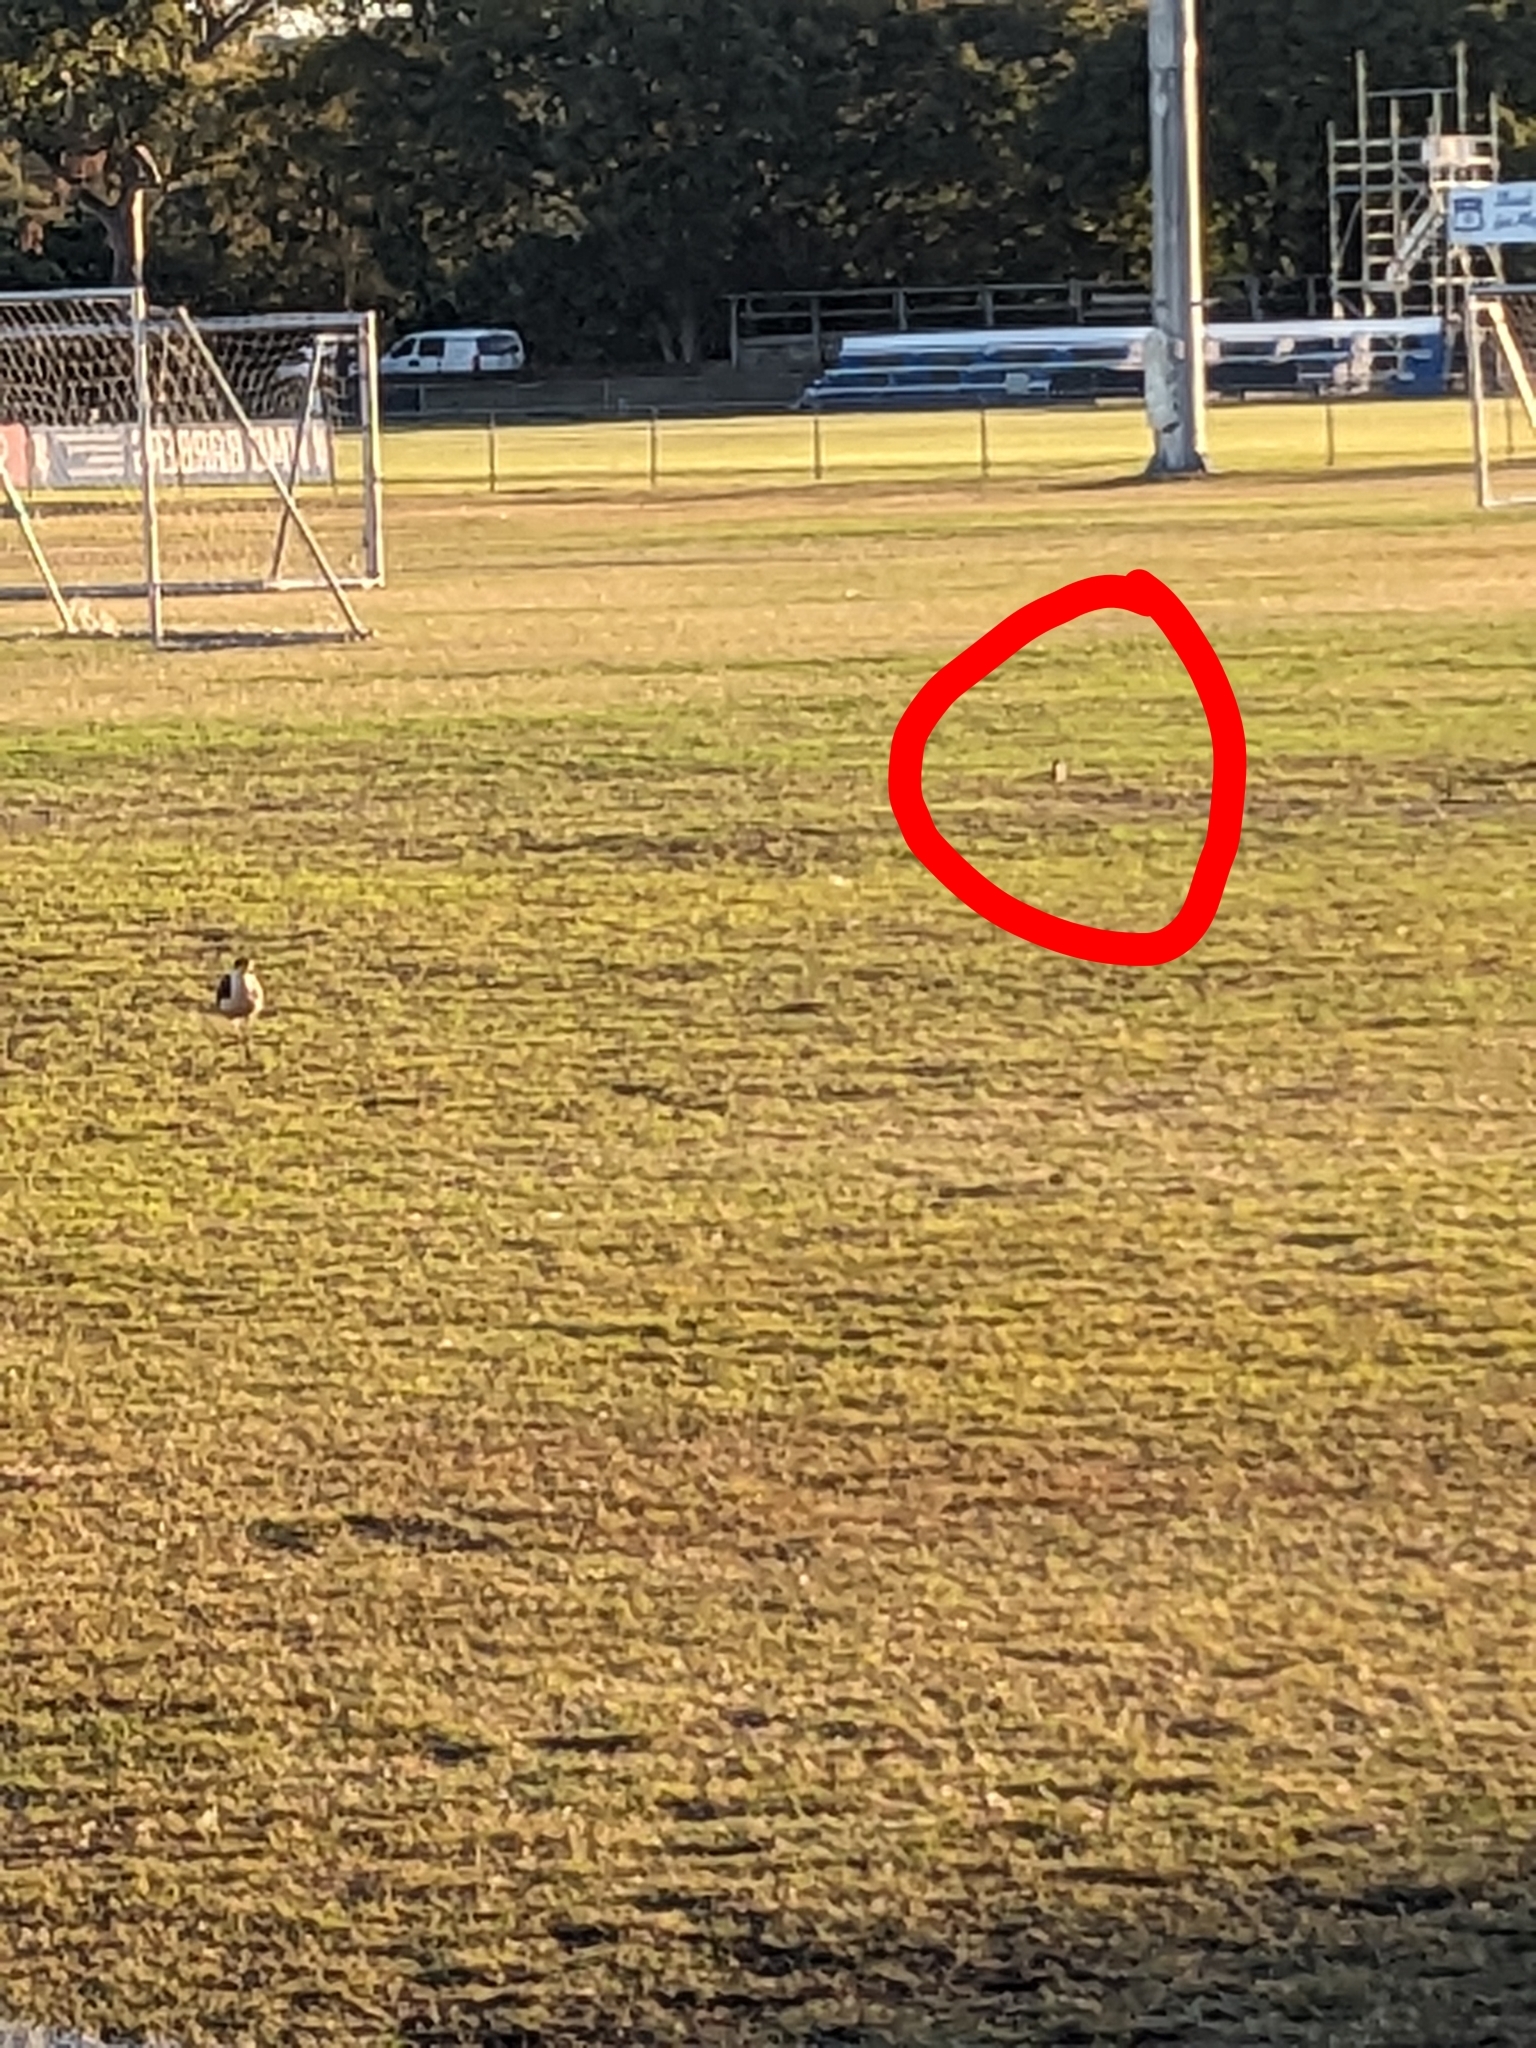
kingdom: Animalia
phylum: Chordata
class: Aves
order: Charadriiformes
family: Charadriidae
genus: Vanellus
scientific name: Vanellus miles
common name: Masked lapwing
